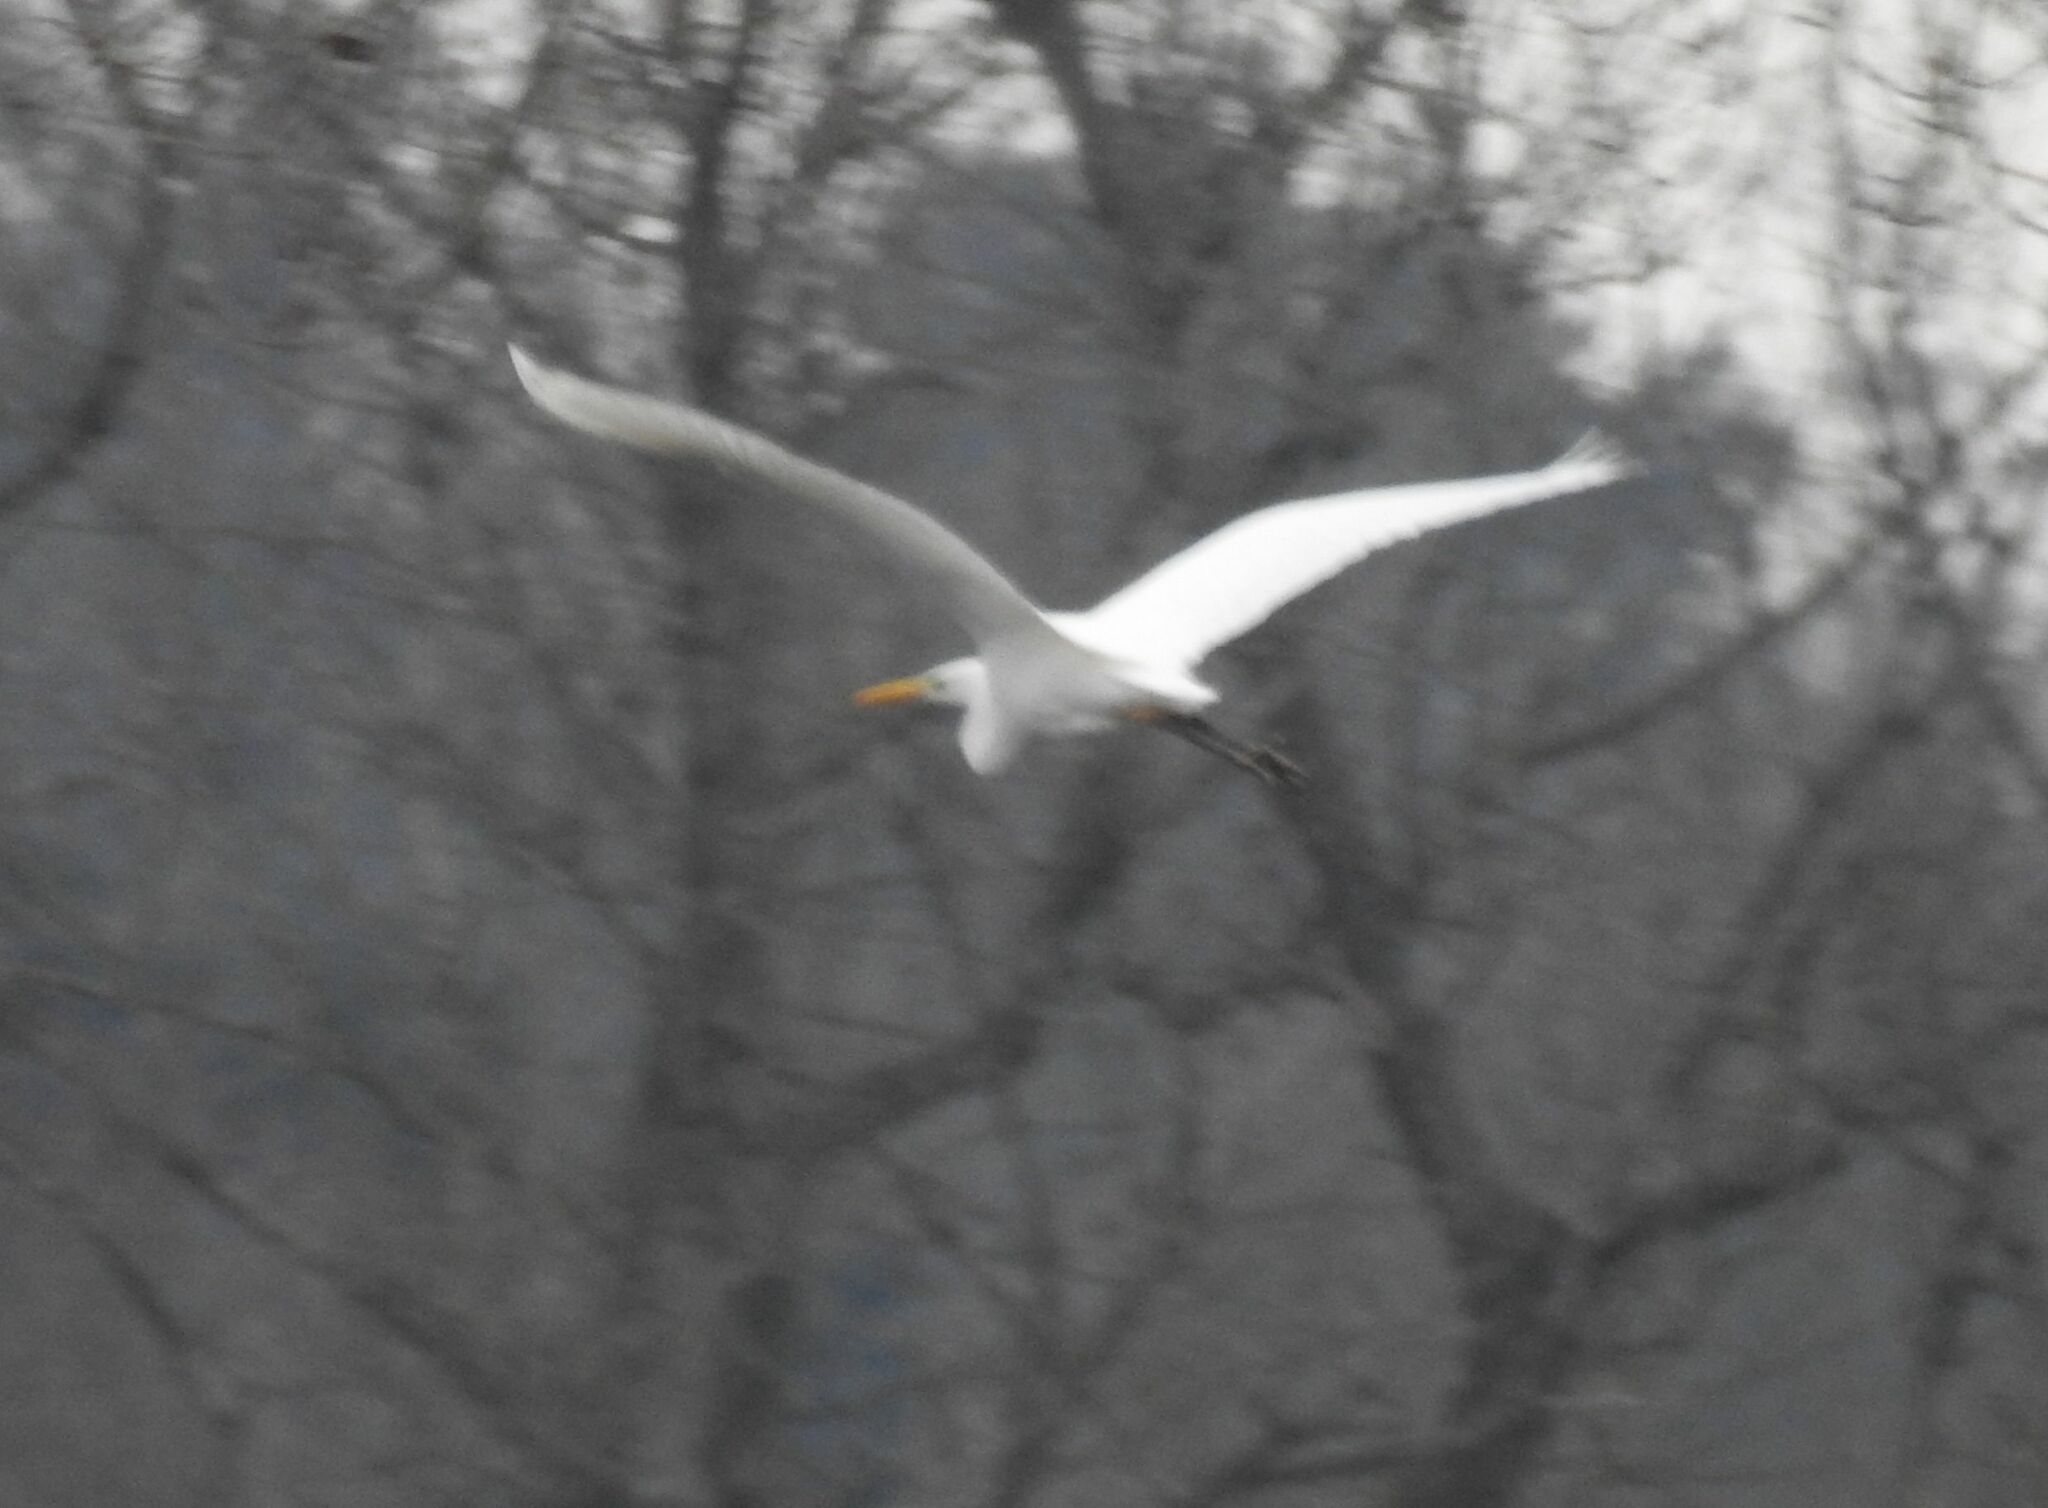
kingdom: Animalia
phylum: Chordata
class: Aves
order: Pelecaniformes
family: Ardeidae
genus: Ardea
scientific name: Ardea alba
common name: Great egret
